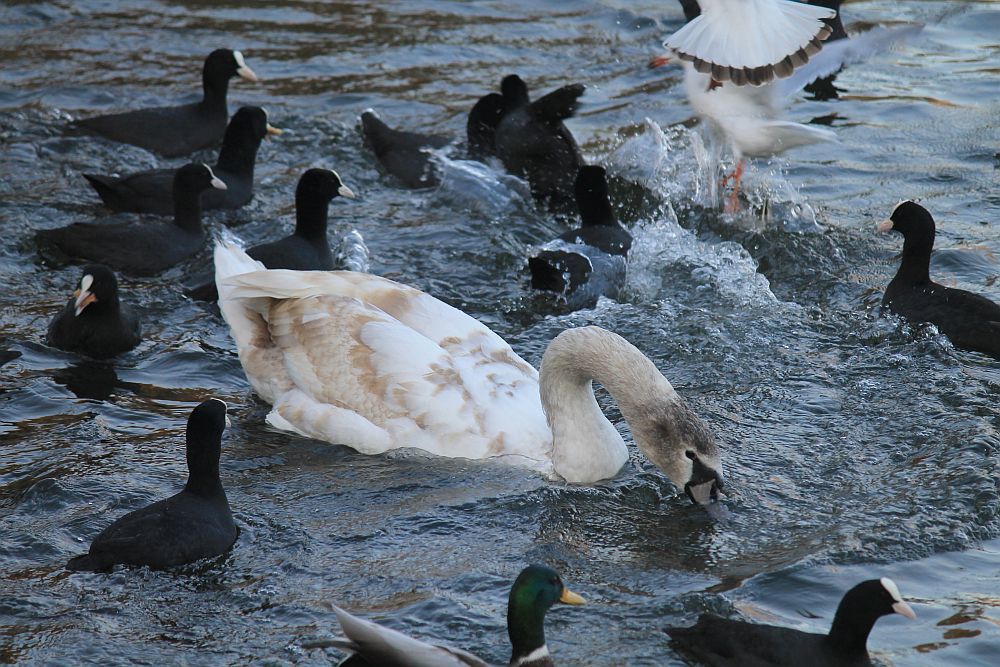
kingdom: Animalia
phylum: Chordata
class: Aves
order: Anseriformes
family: Anatidae
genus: Cygnus
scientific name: Cygnus olor
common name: Mute swan
